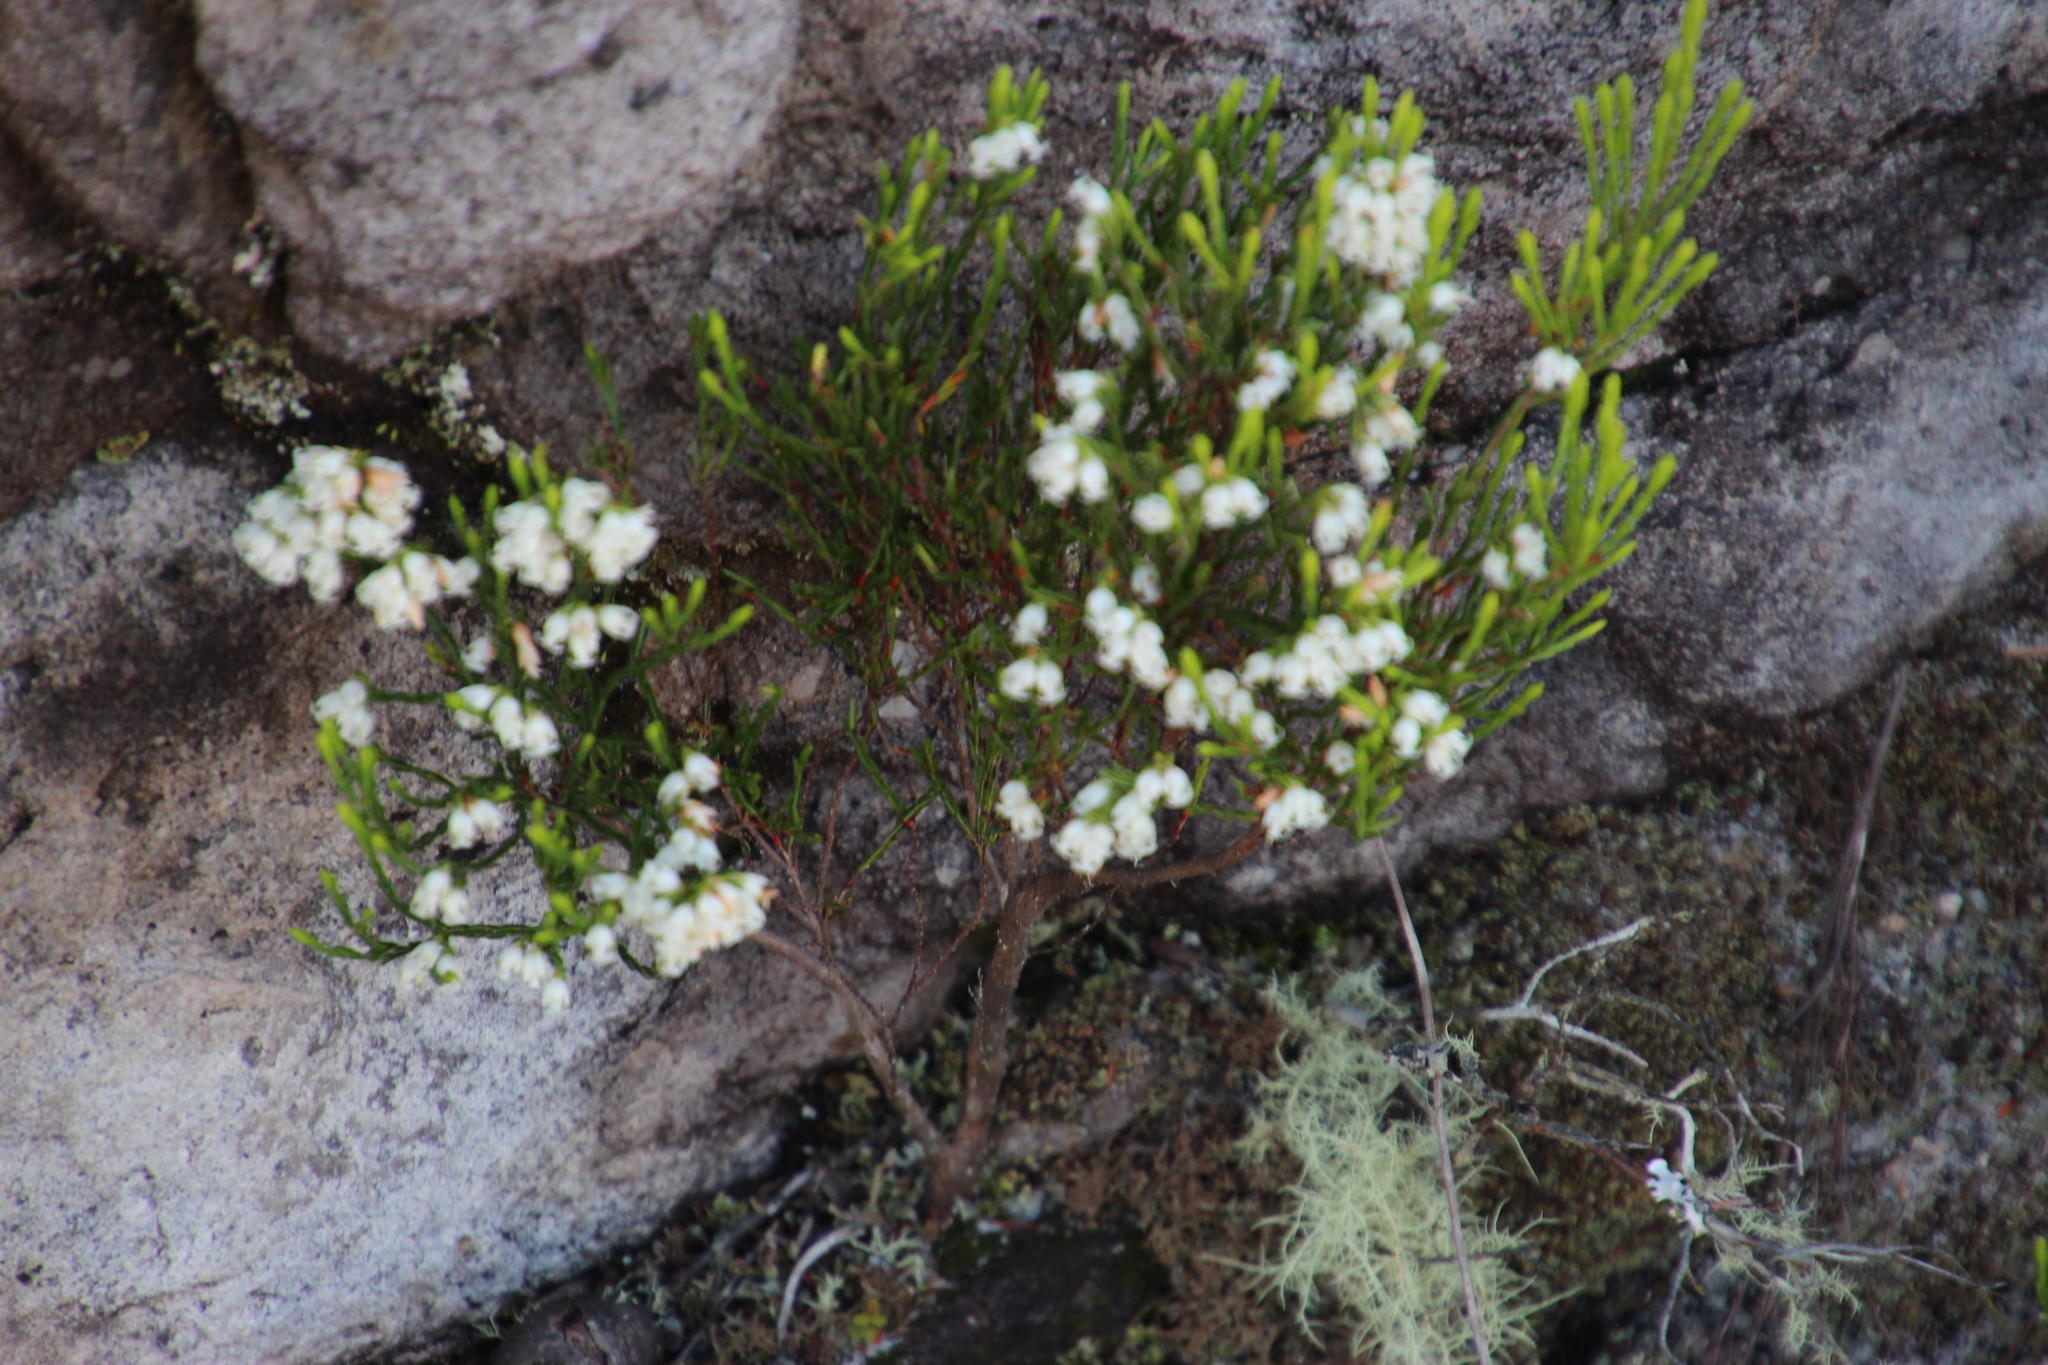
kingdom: Plantae
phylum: Tracheophyta
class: Magnoliopsida
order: Ericales
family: Ericaceae
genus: Erica
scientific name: Erica lutea
